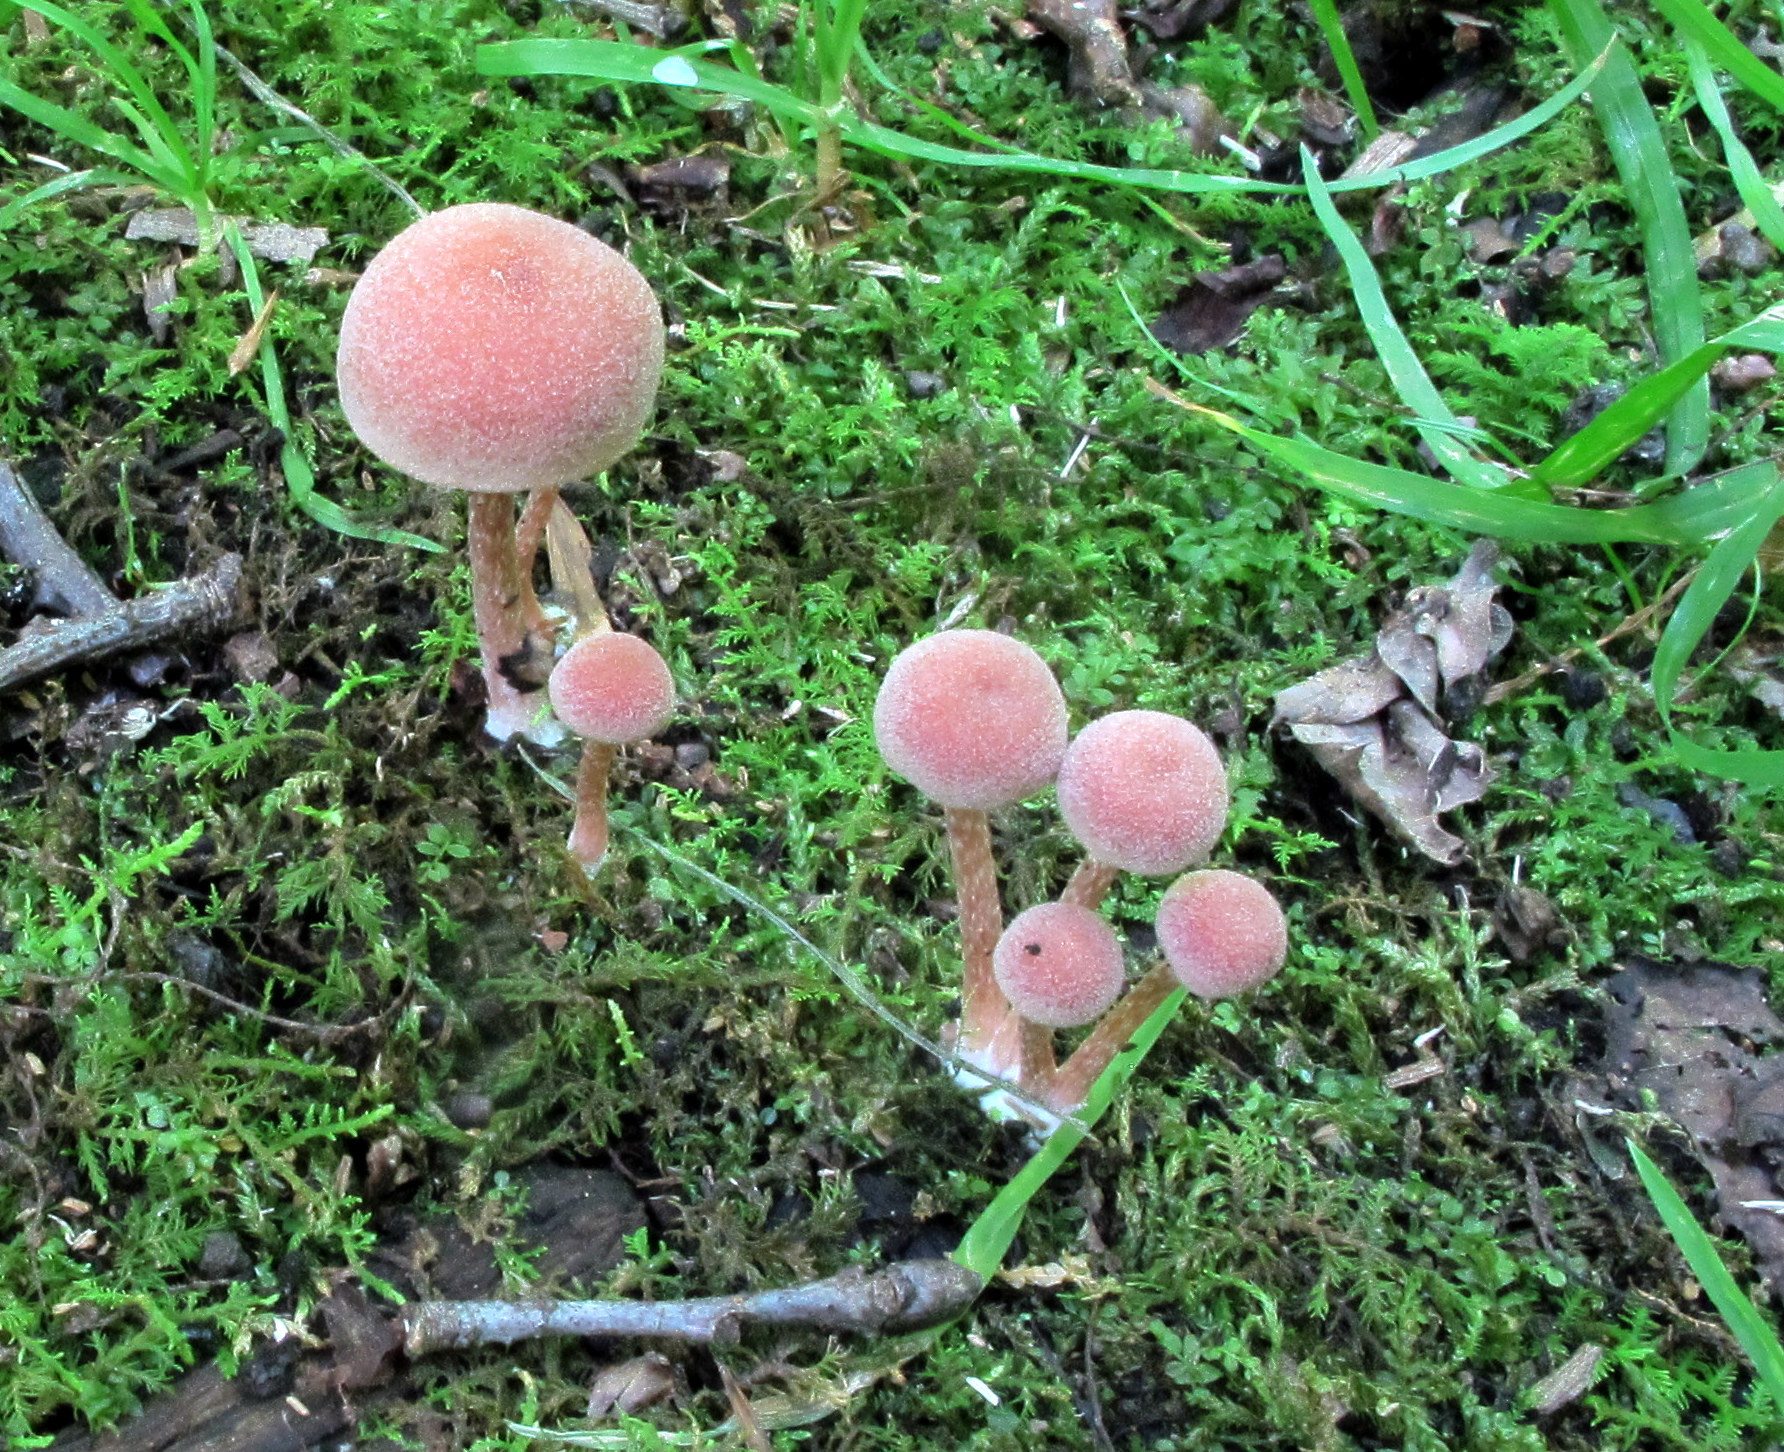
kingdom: Fungi
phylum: Basidiomycota
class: Agaricomycetes
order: Agaricales
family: Tubariaceae
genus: Tubaria
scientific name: Tubaria confragosa
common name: Ringed twiglet
